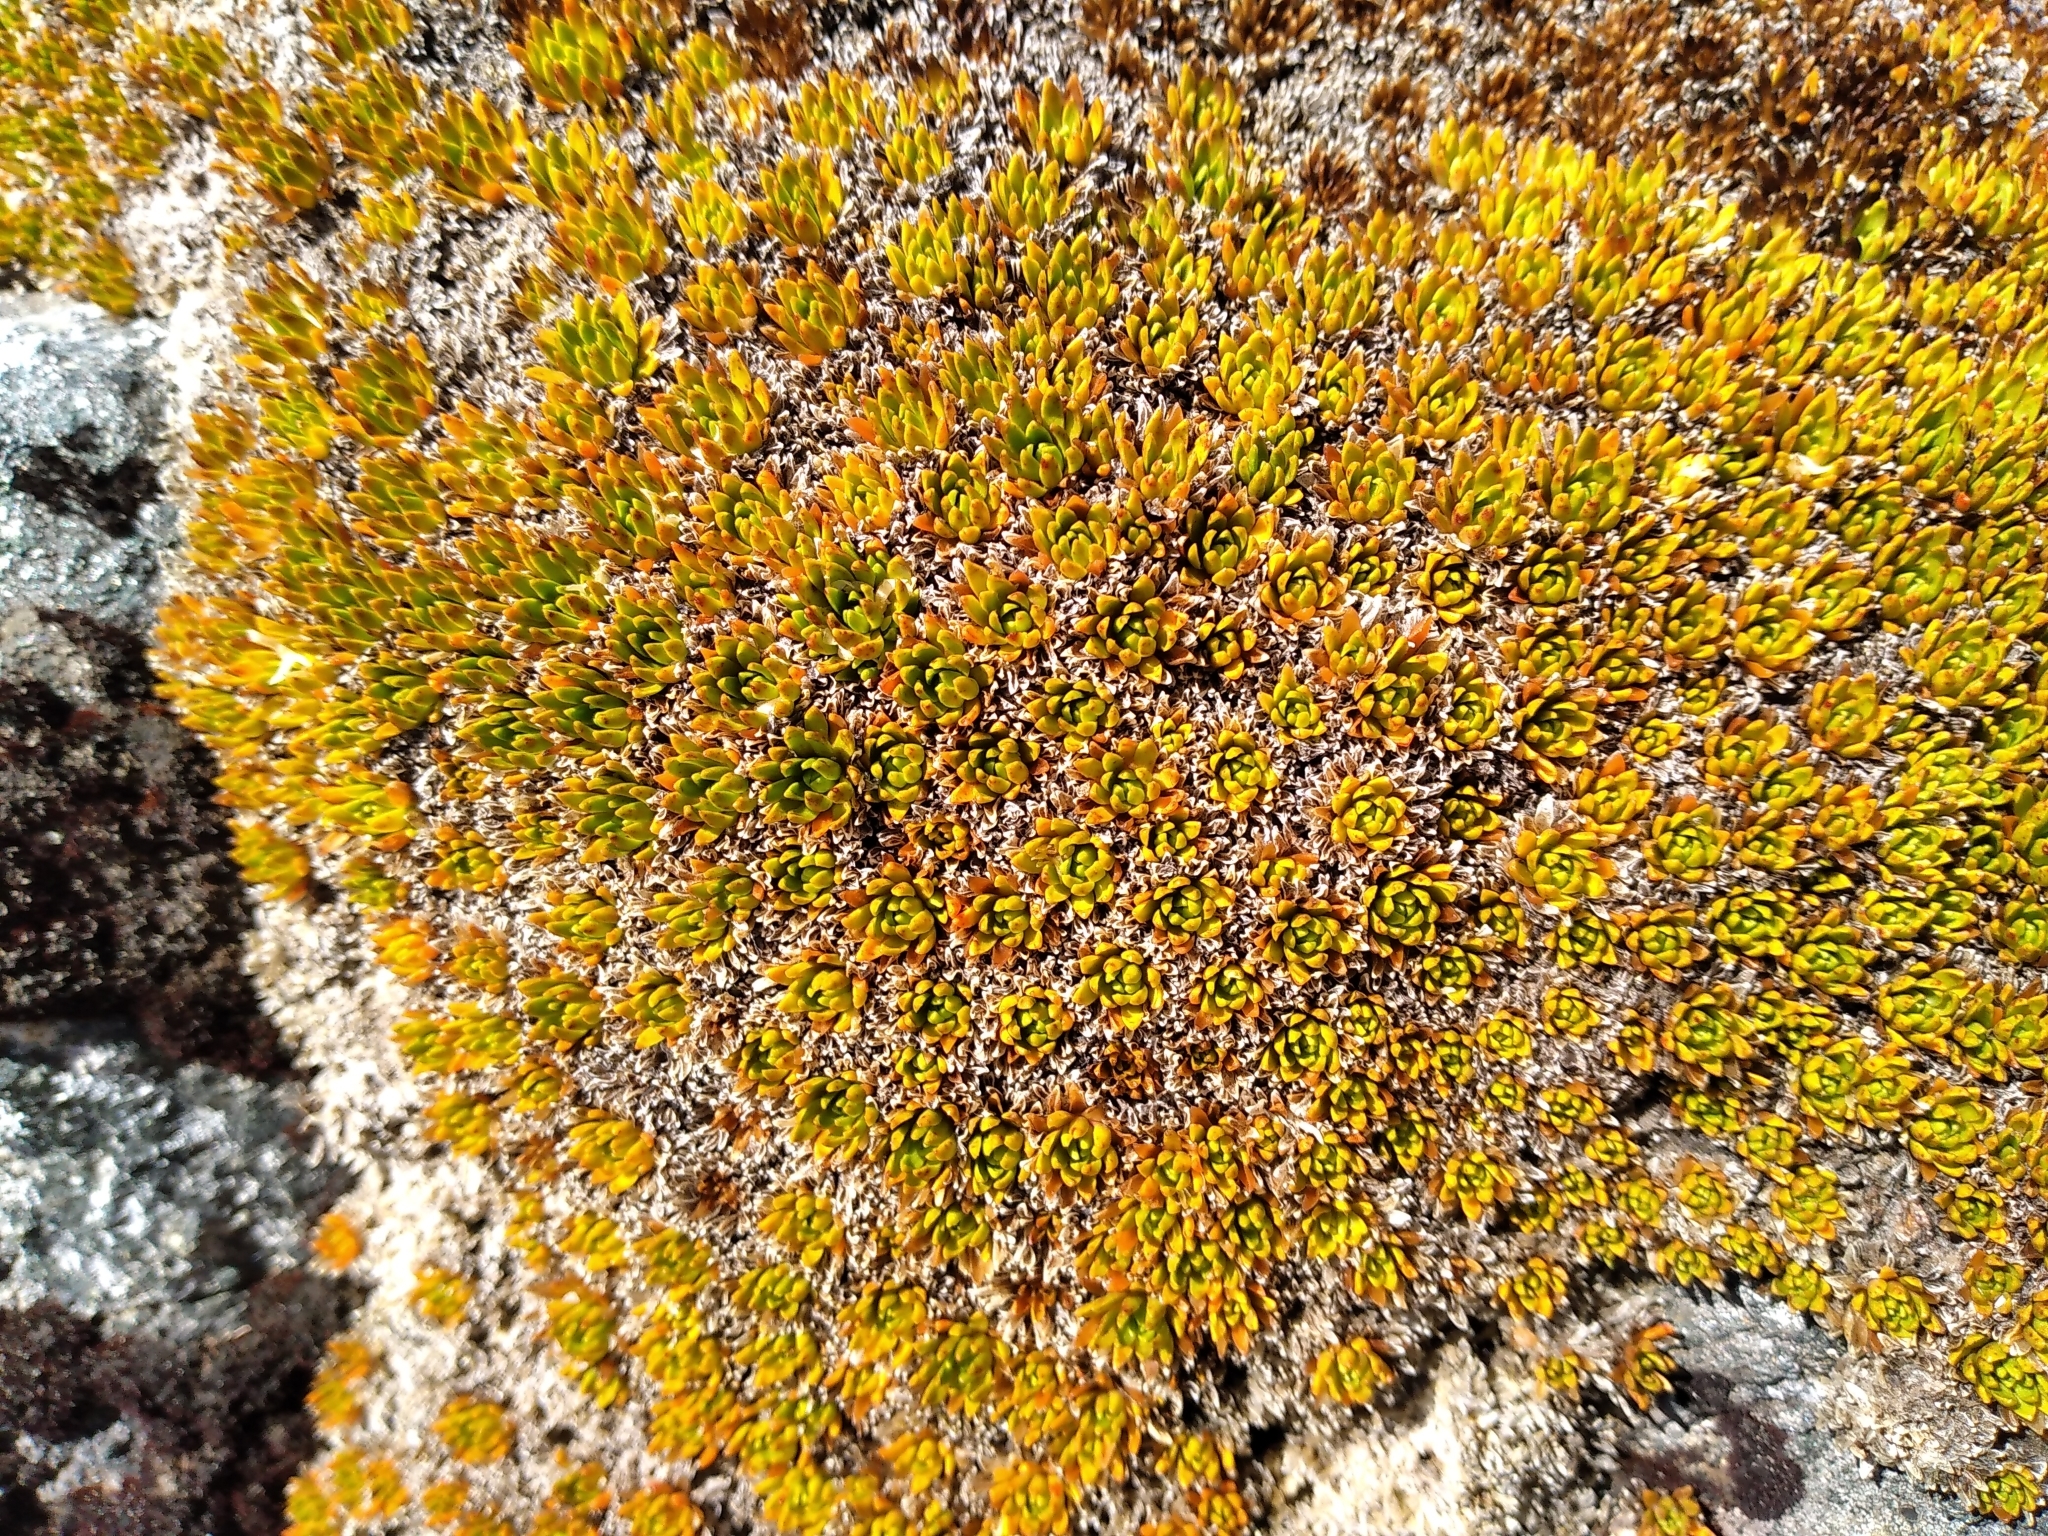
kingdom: Plantae
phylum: Tracheophyta
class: Magnoliopsida
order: Caryophyllales
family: Montiaceae
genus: Hectorella
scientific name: Hectorella caespitosa
